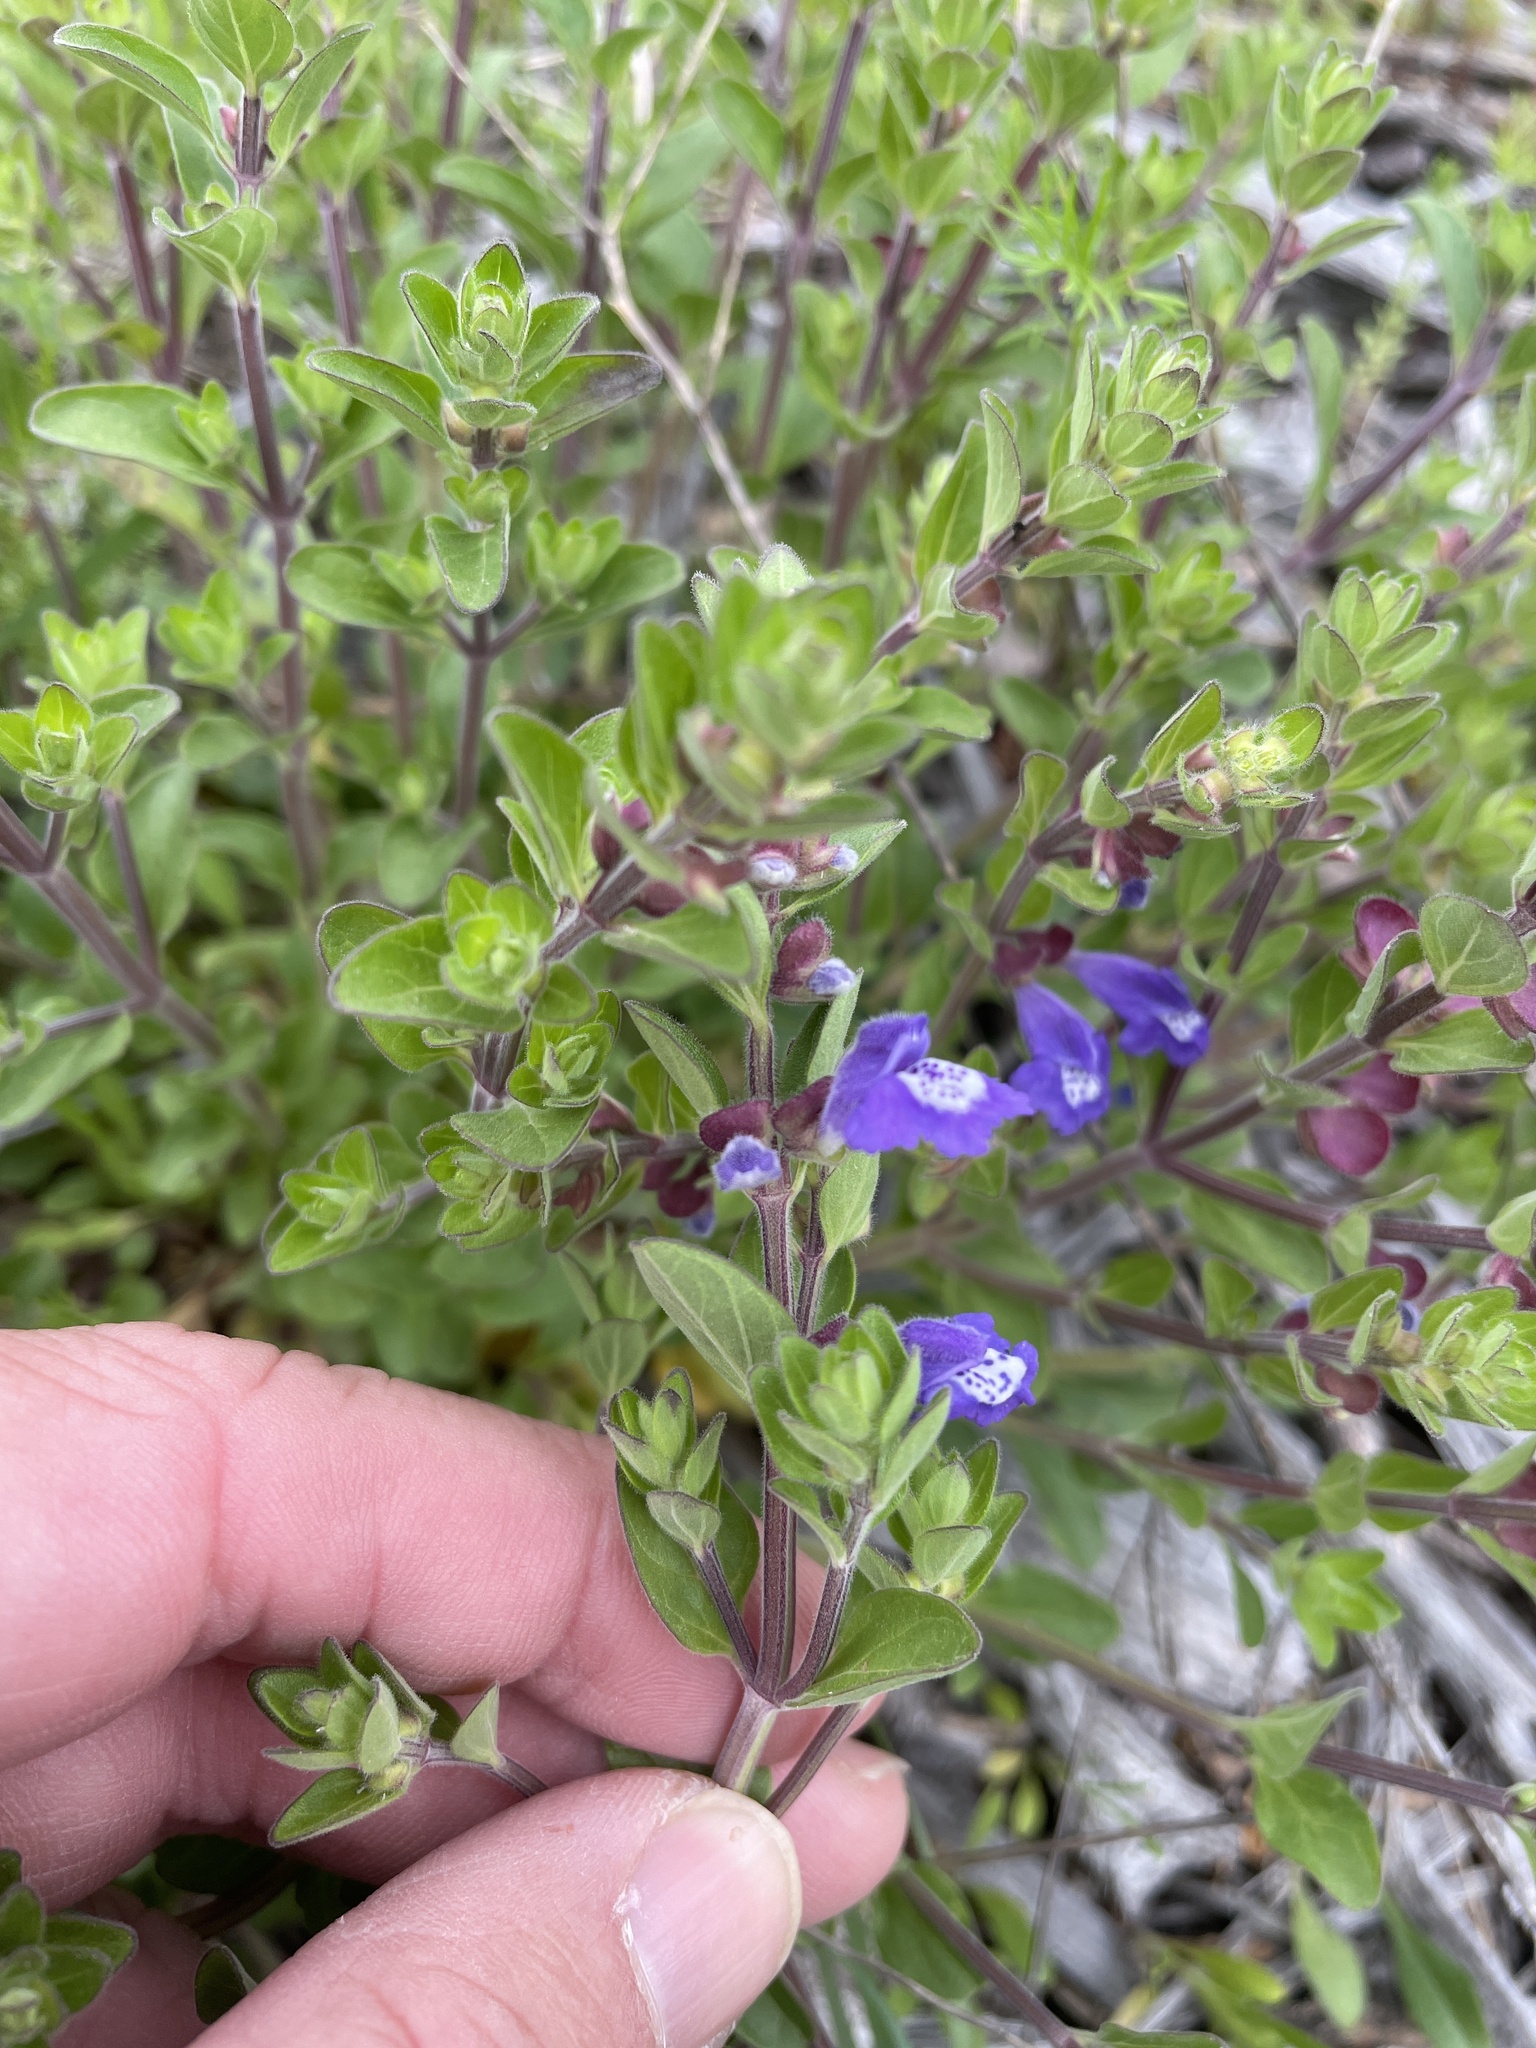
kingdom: Plantae
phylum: Tracheophyta
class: Magnoliopsida
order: Lamiales
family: Lamiaceae
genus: Scutellaria
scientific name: Scutellaria drummondii
